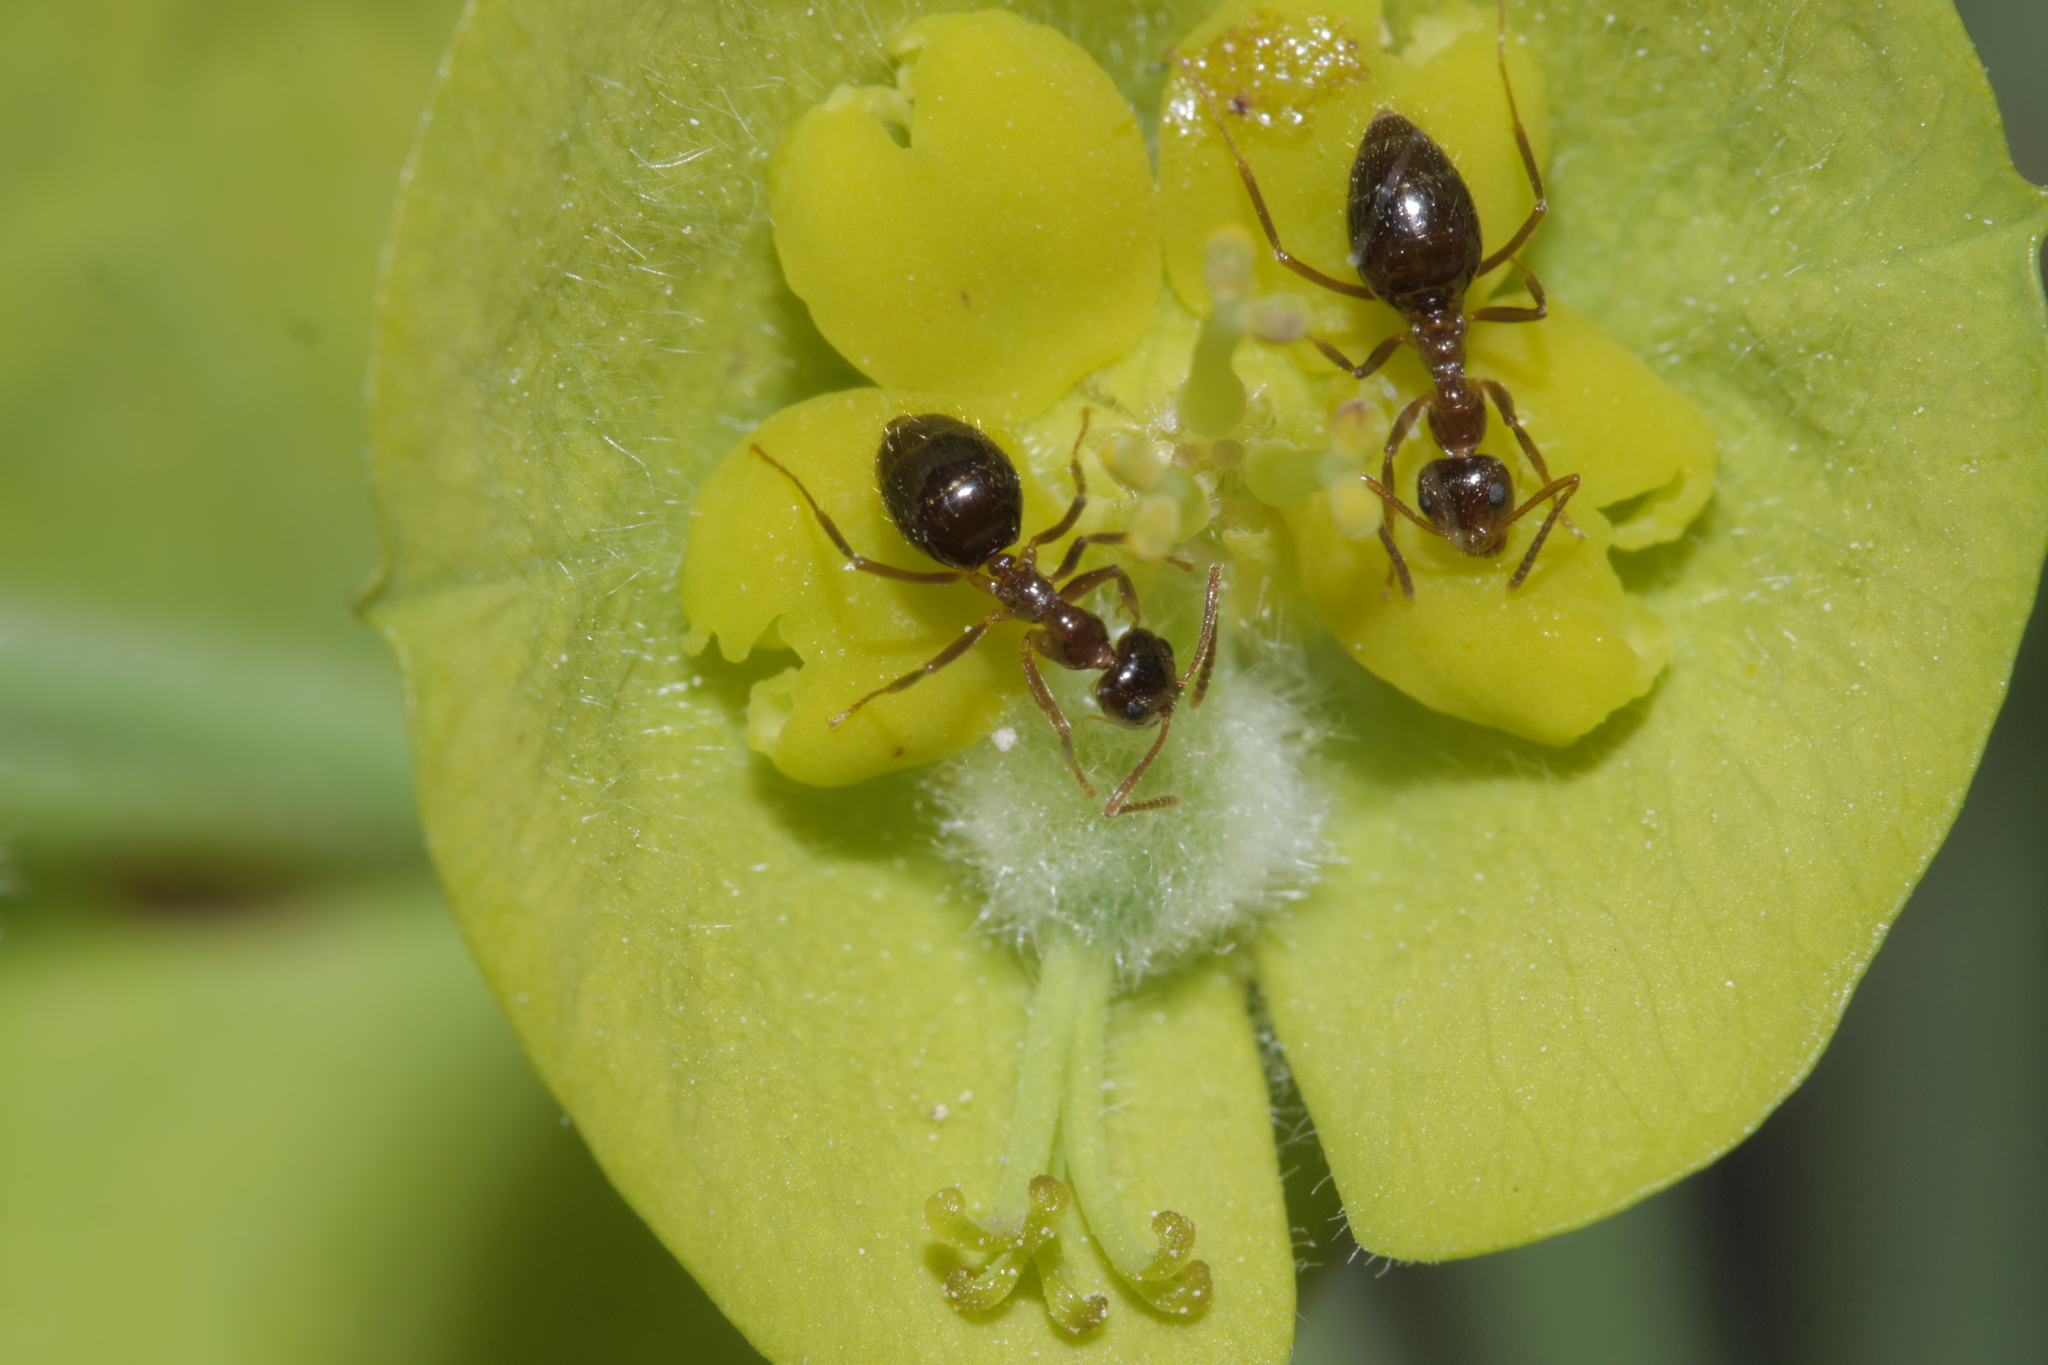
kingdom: Animalia
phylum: Arthropoda
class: Insecta
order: Hymenoptera
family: Formicidae
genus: Prenolepis
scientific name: Prenolepis nitens
